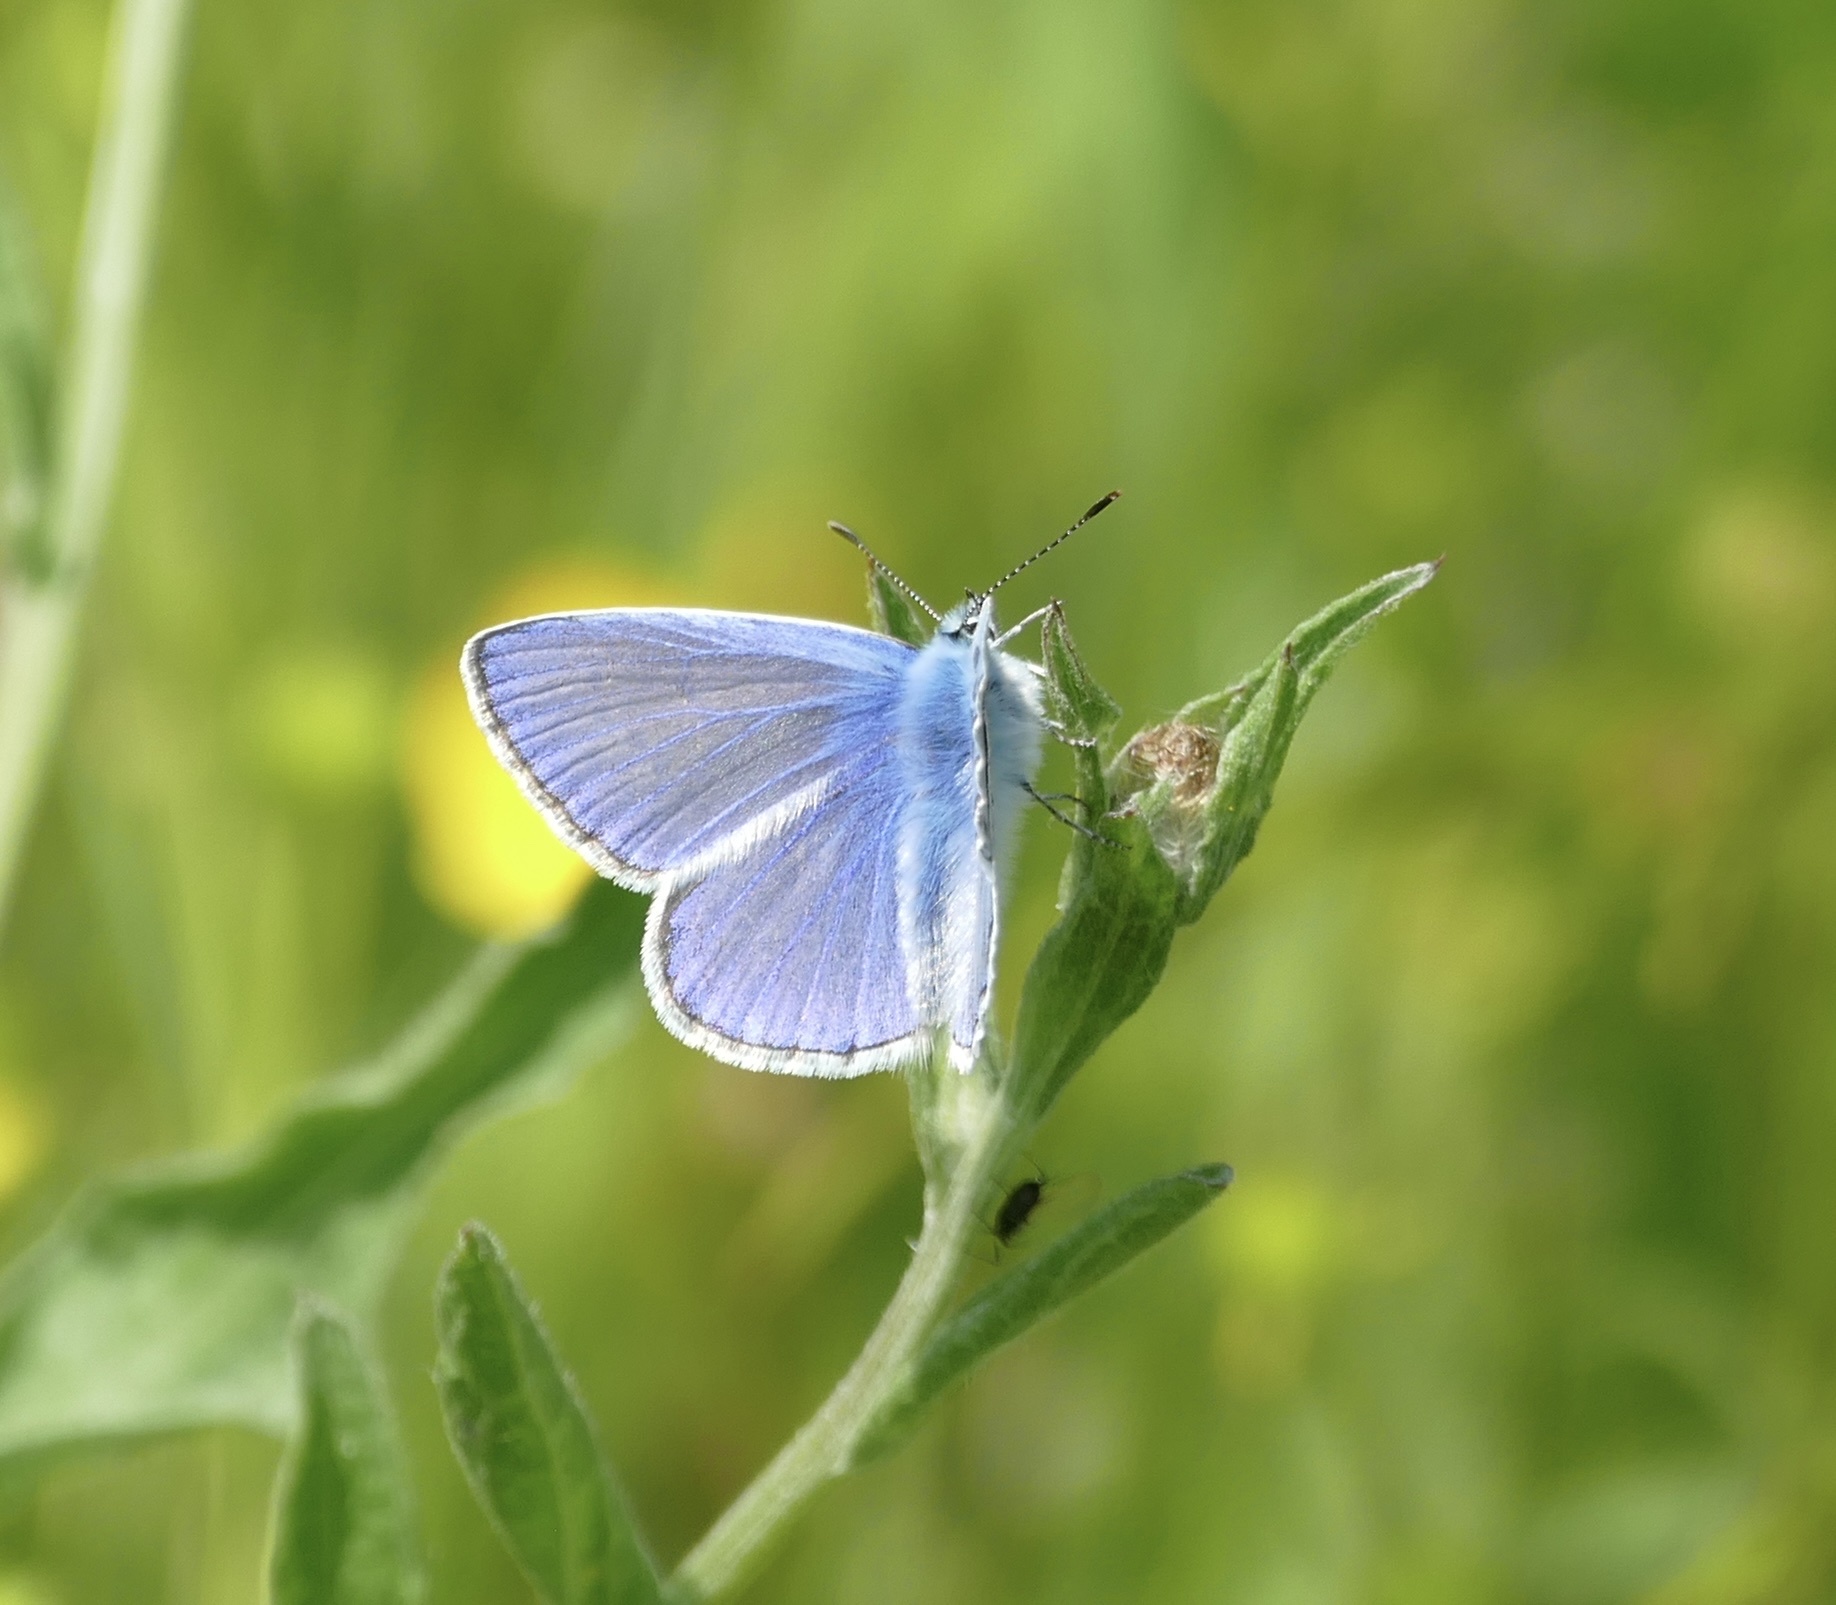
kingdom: Animalia
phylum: Arthropoda
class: Insecta
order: Lepidoptera
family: Lycaenidae
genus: Polyommatus
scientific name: Polyommatus icarus
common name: Common blue
